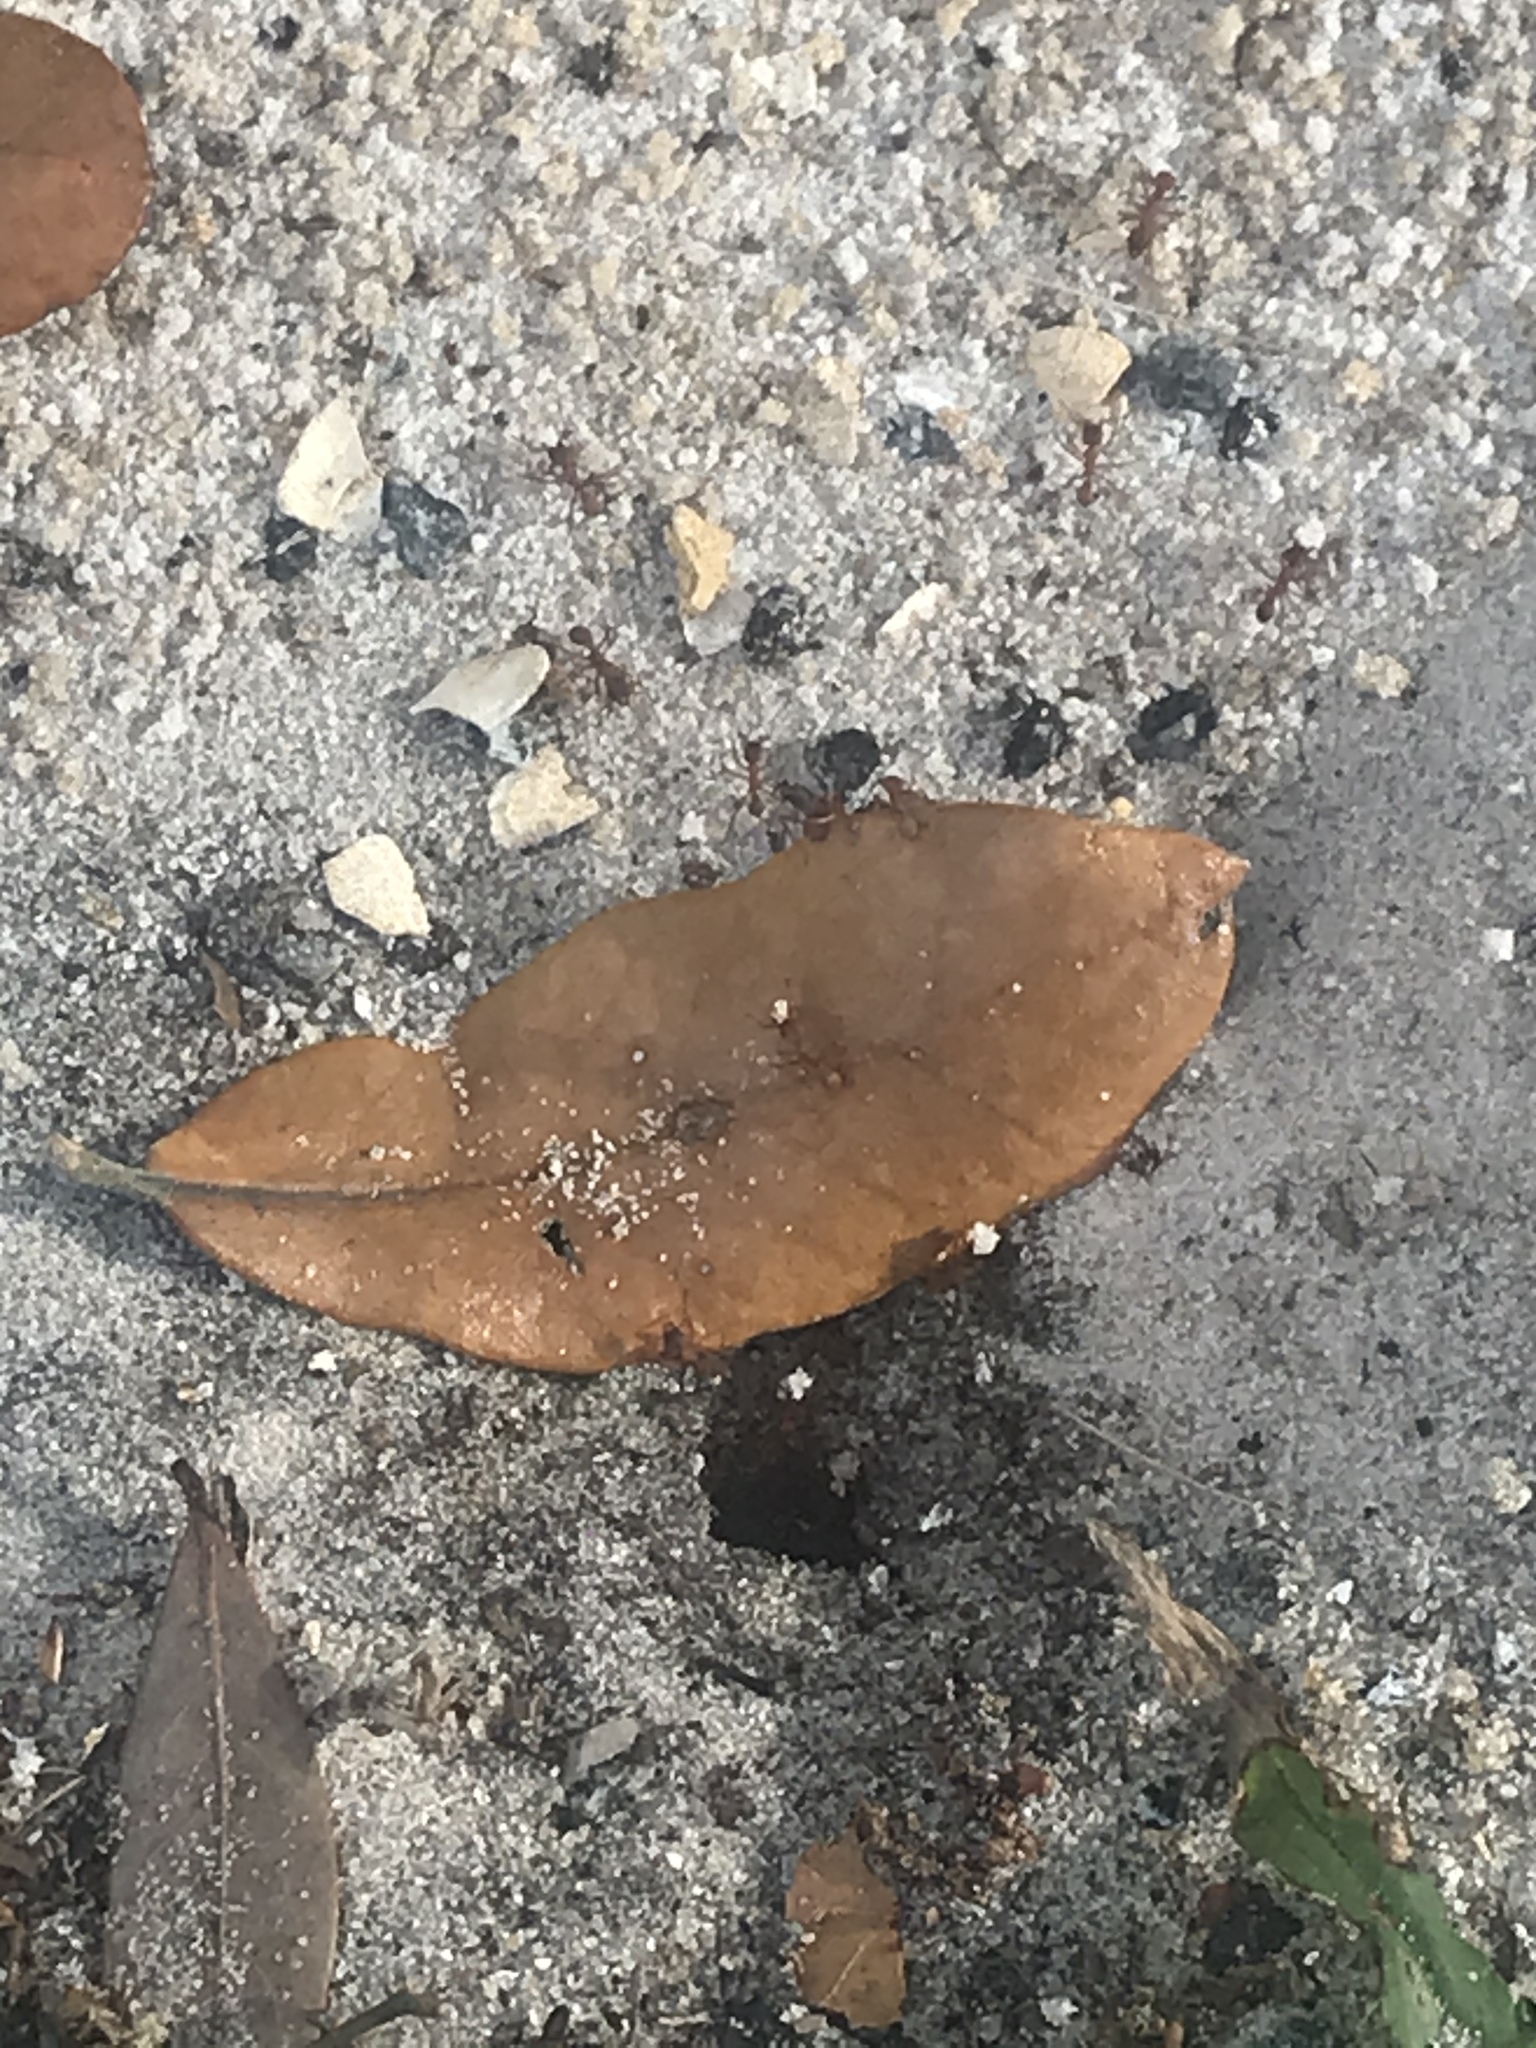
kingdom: Animalia
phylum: Arthropoda
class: Insecta
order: Hymenoptera
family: Formicidae
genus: Trachymyrmex
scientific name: Trachymyrmex septentrionalis
